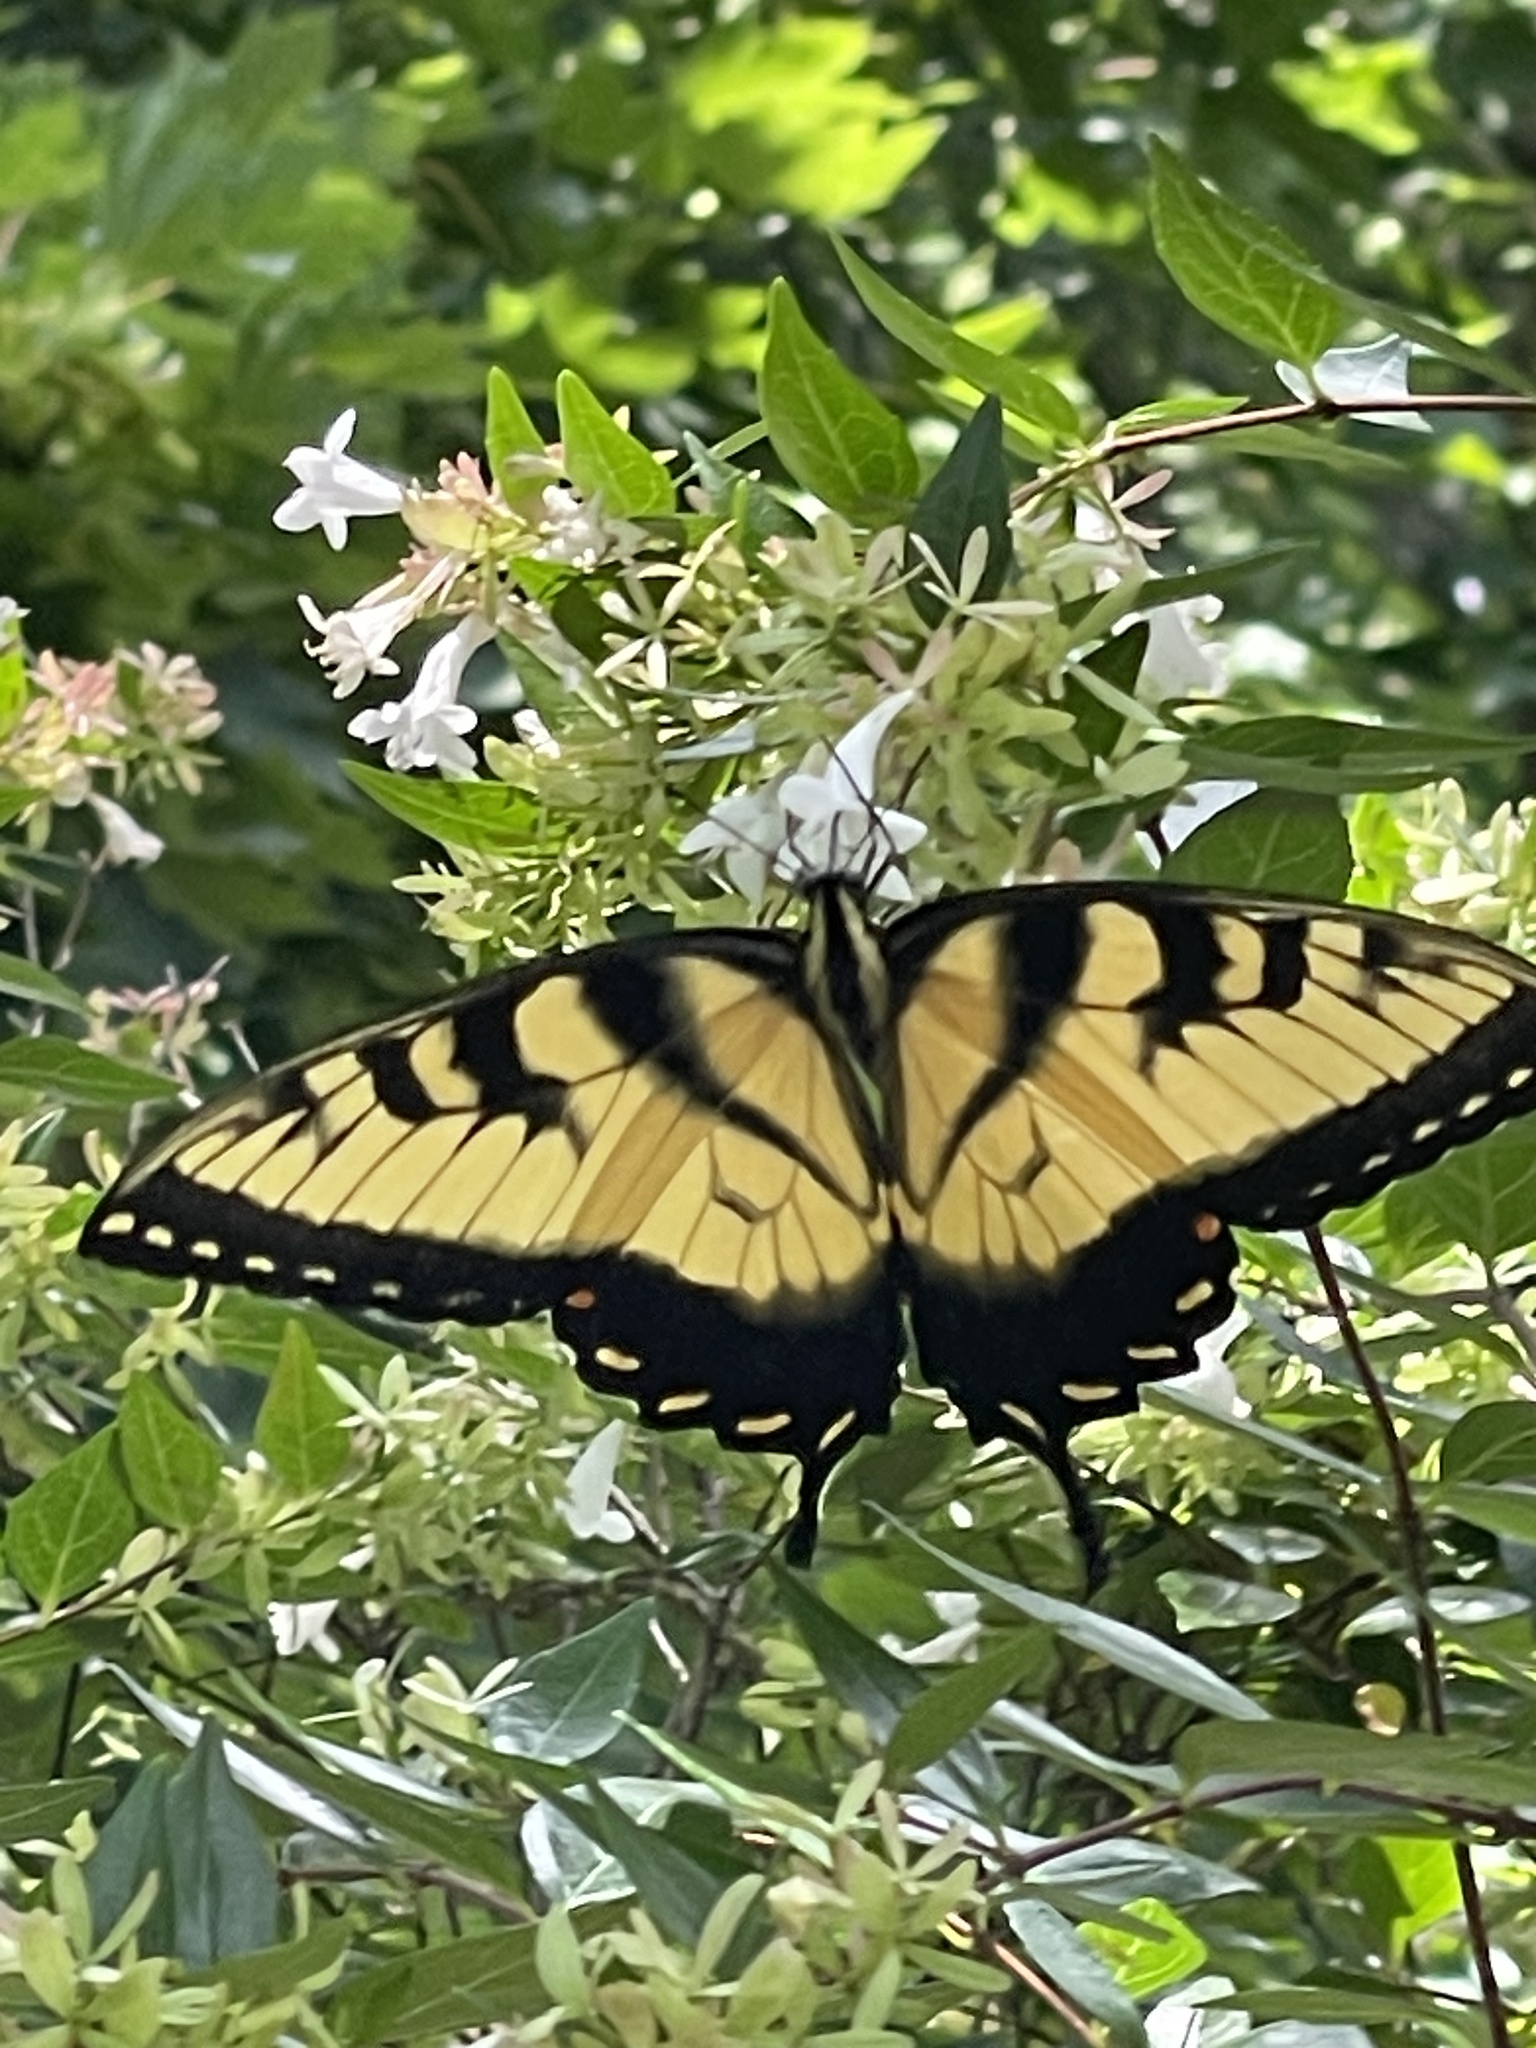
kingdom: Animalia
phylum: Arthropoda
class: Insecta
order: Lepidoptera
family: Papilionidae
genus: Papilio
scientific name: Papilio glaucus
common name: Tiger swallowtail
